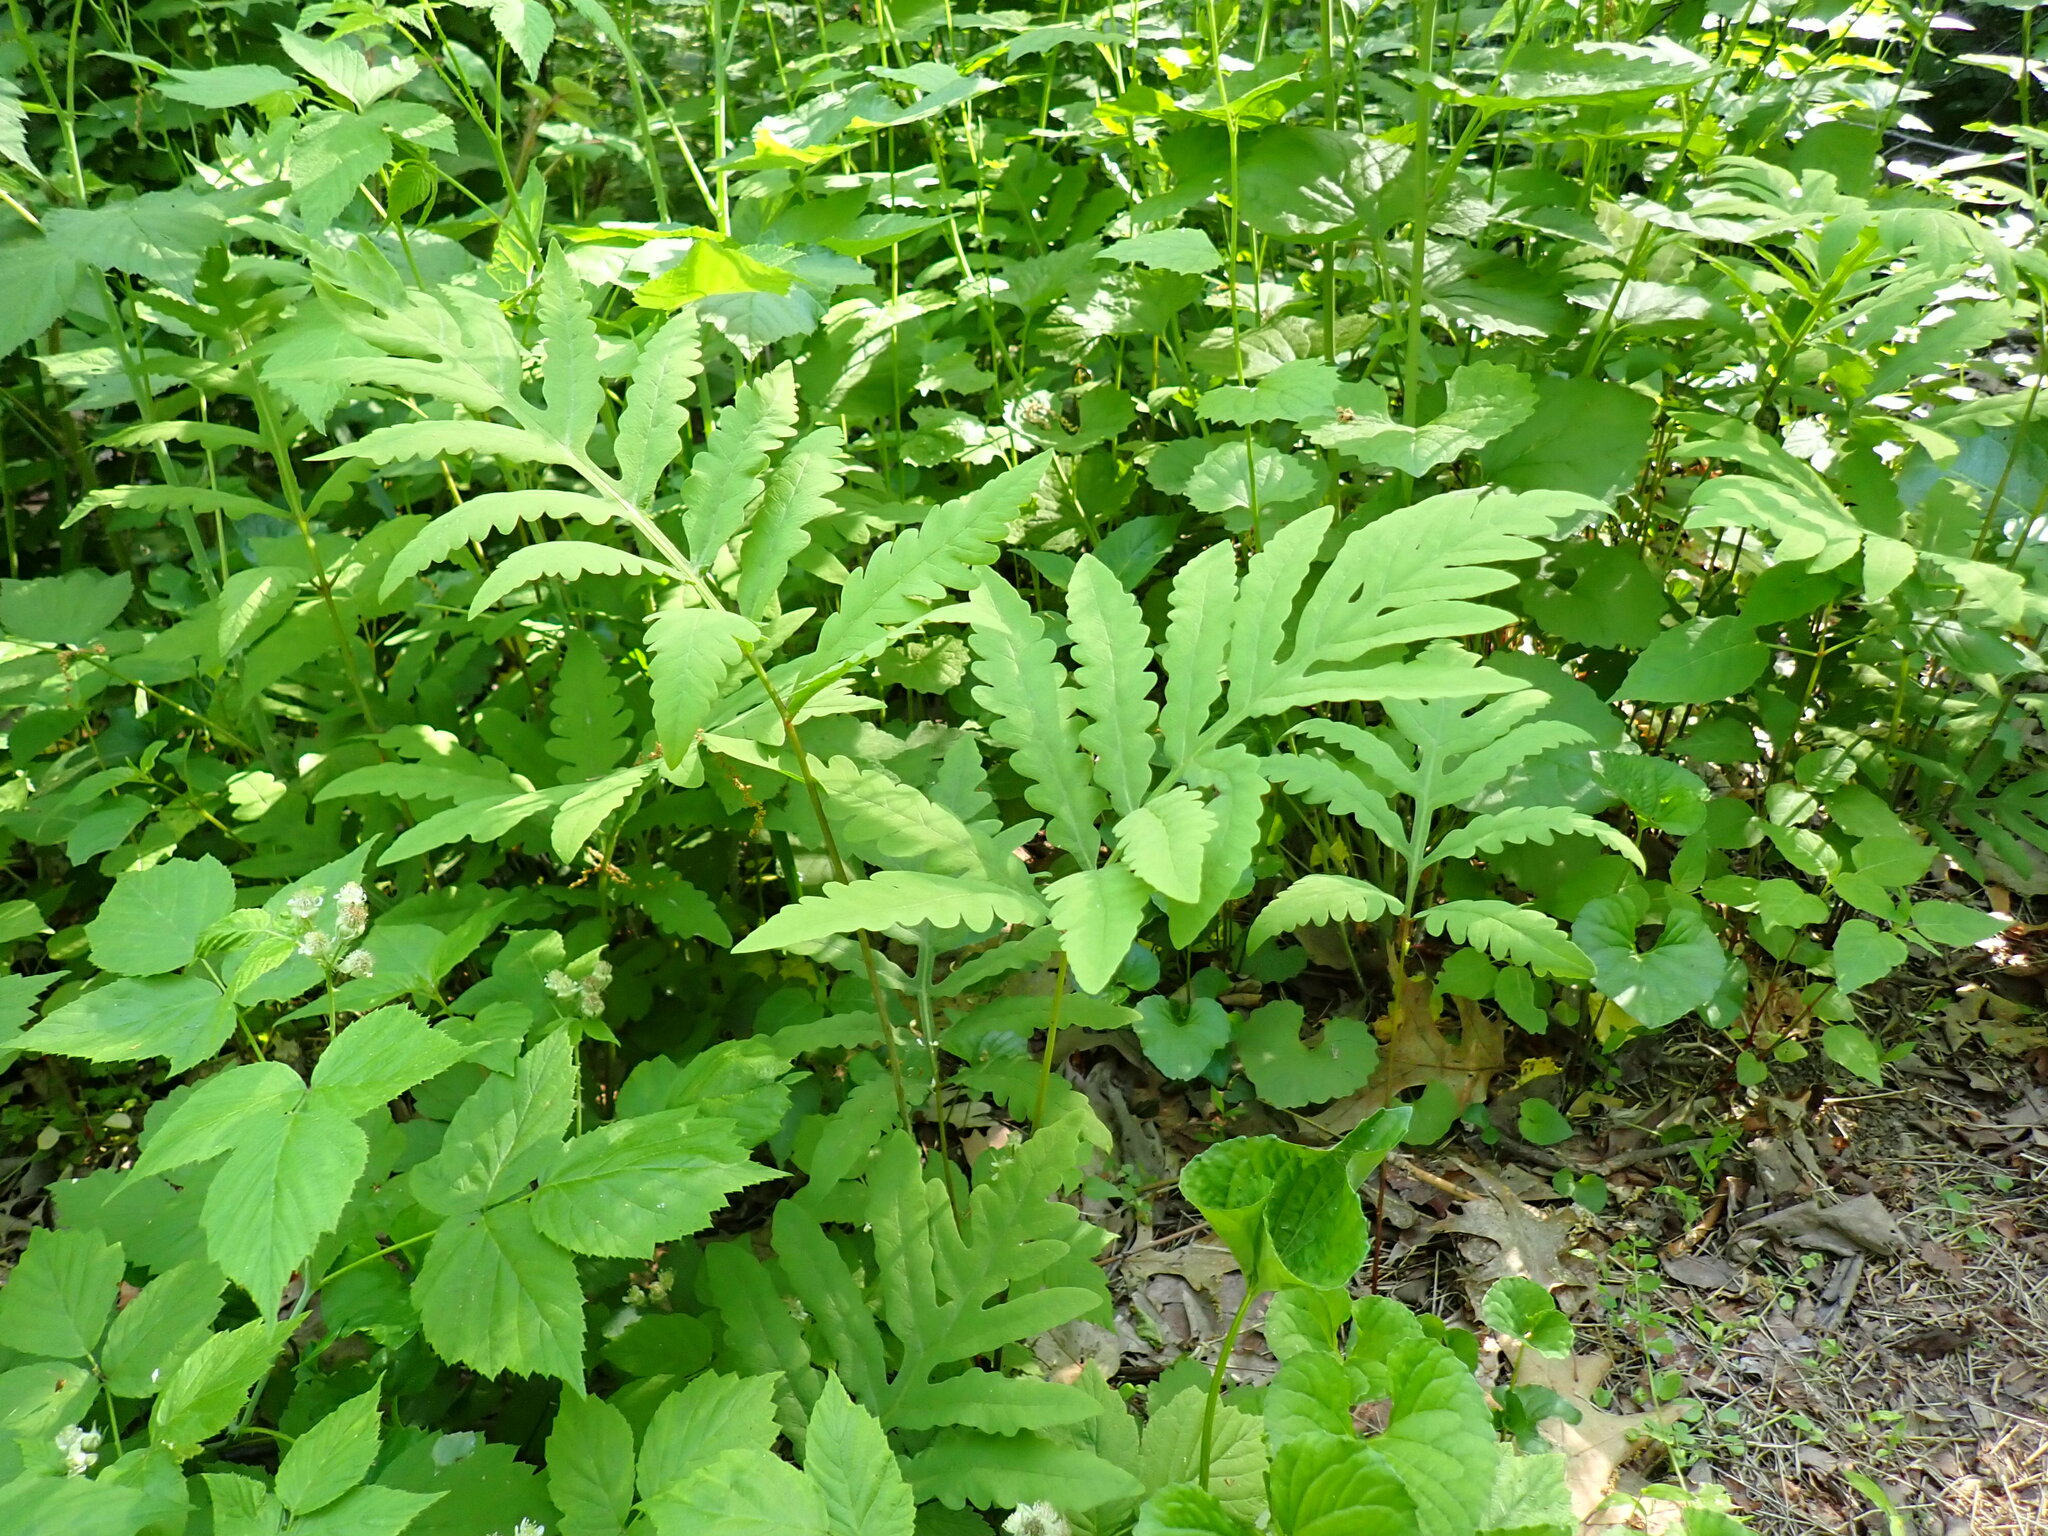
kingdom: Plantae
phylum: Tracheophyta
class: Polypodiopsida
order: Polypodiales
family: Onocleaceae
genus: Onoclea
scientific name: Onoclea sensibilis
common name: Sensitive fern
